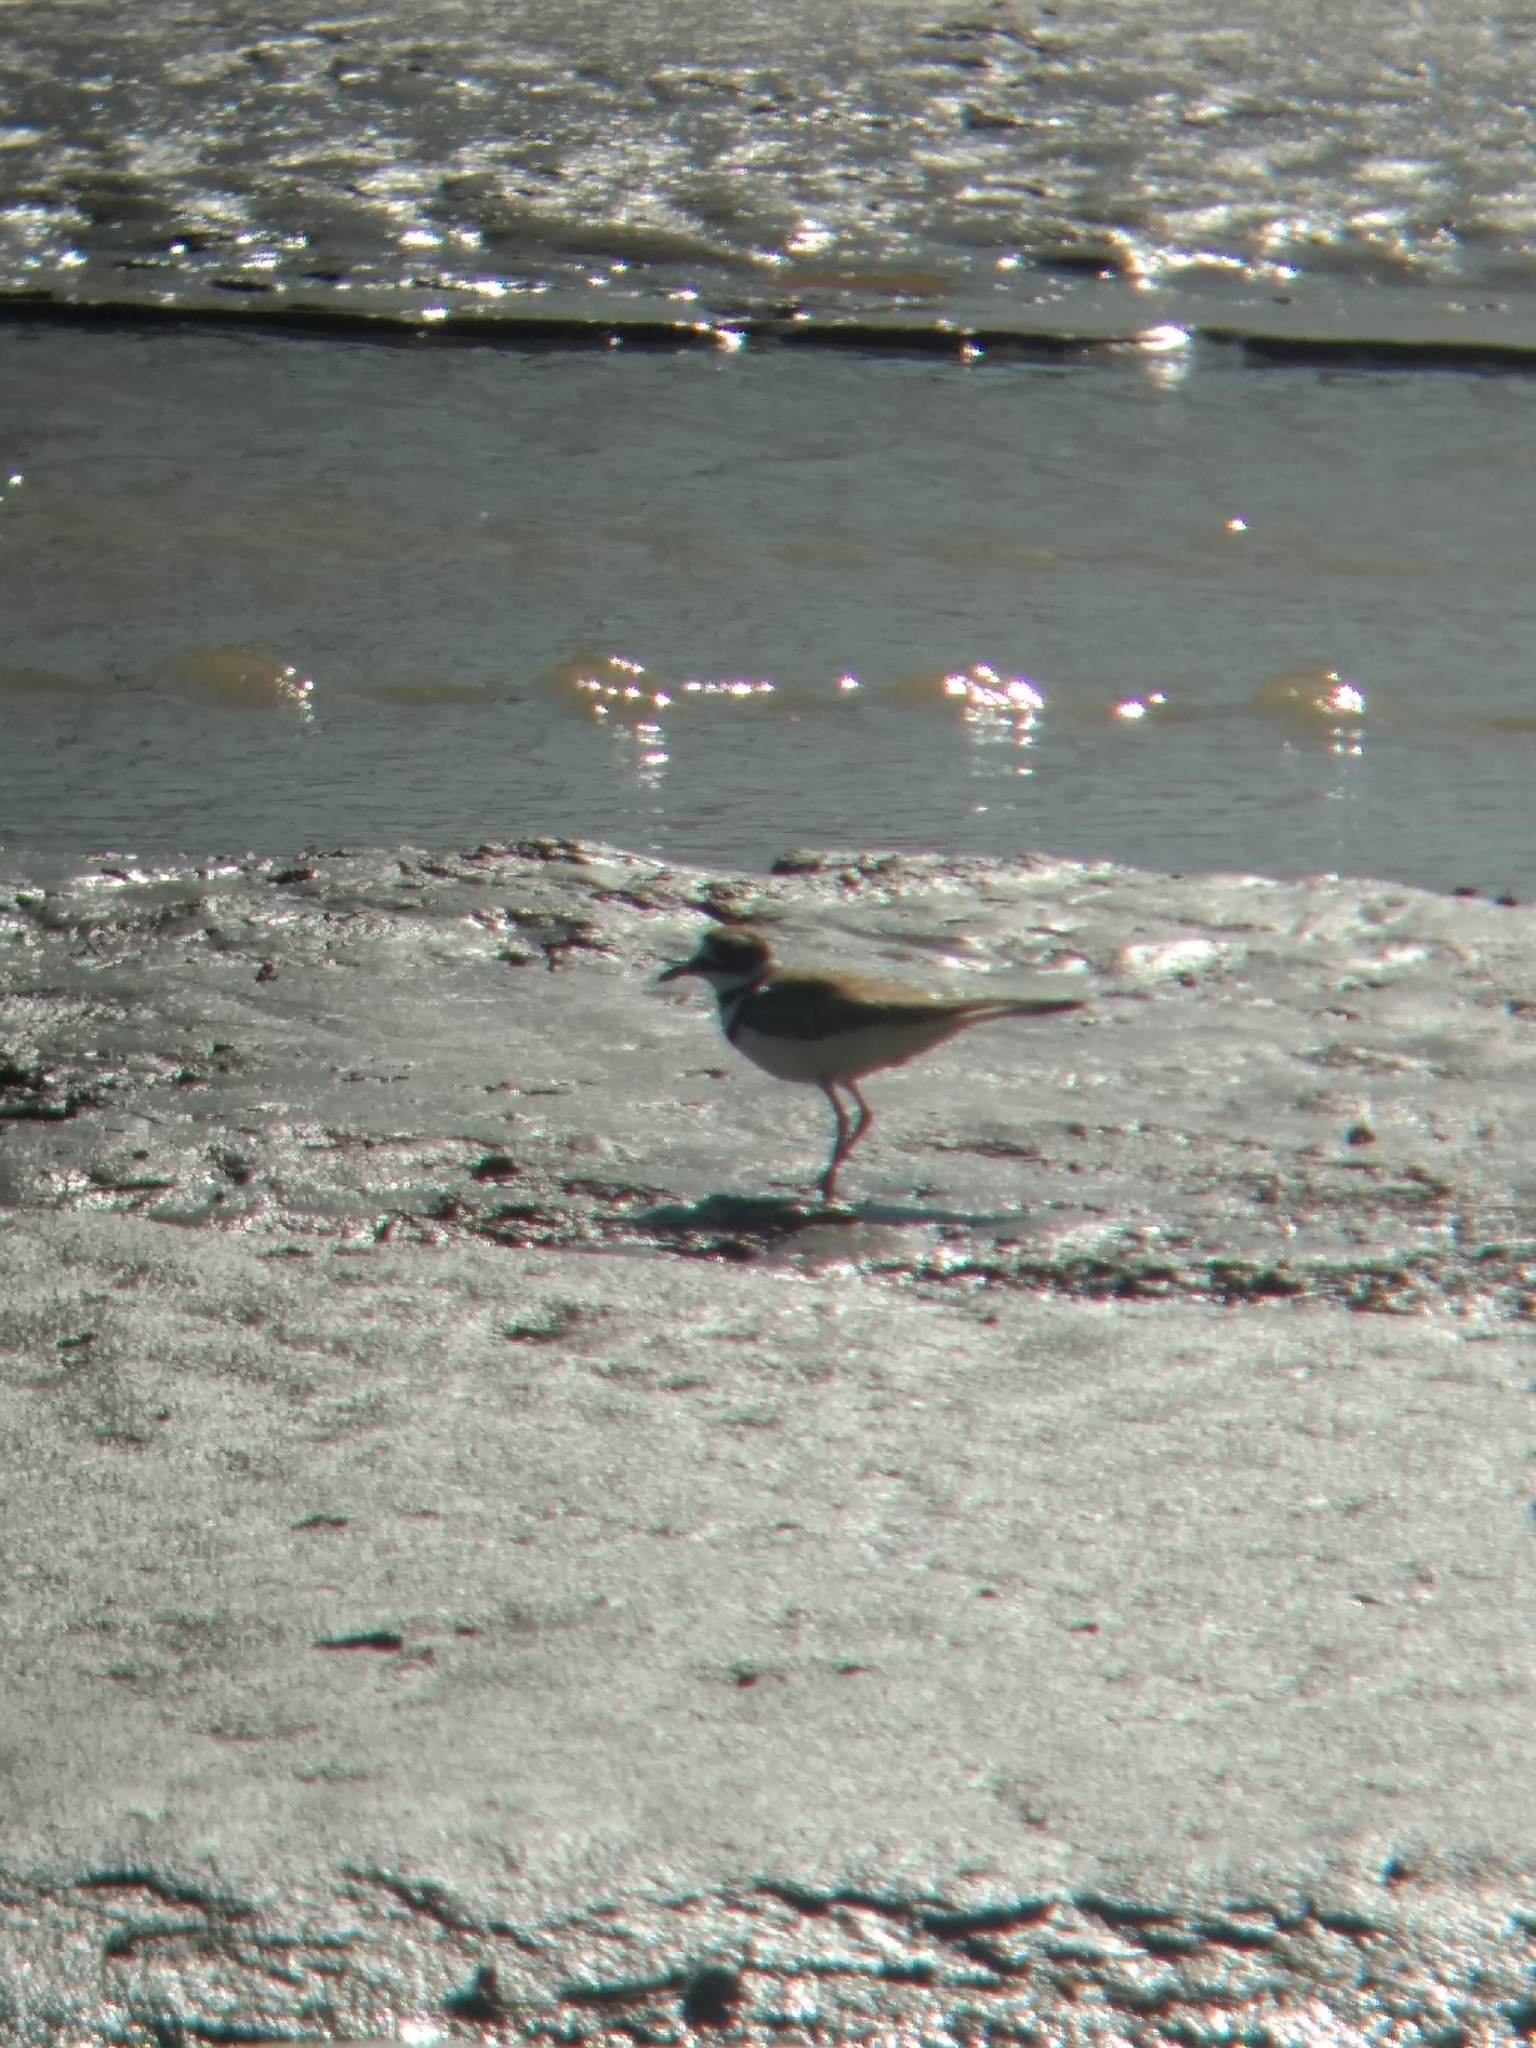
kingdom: Animalia
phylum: Chordata
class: Aves
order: Charadriiformes
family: Charadriidae
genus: Charadrius
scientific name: Charadrius vociferus
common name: Killdeer
